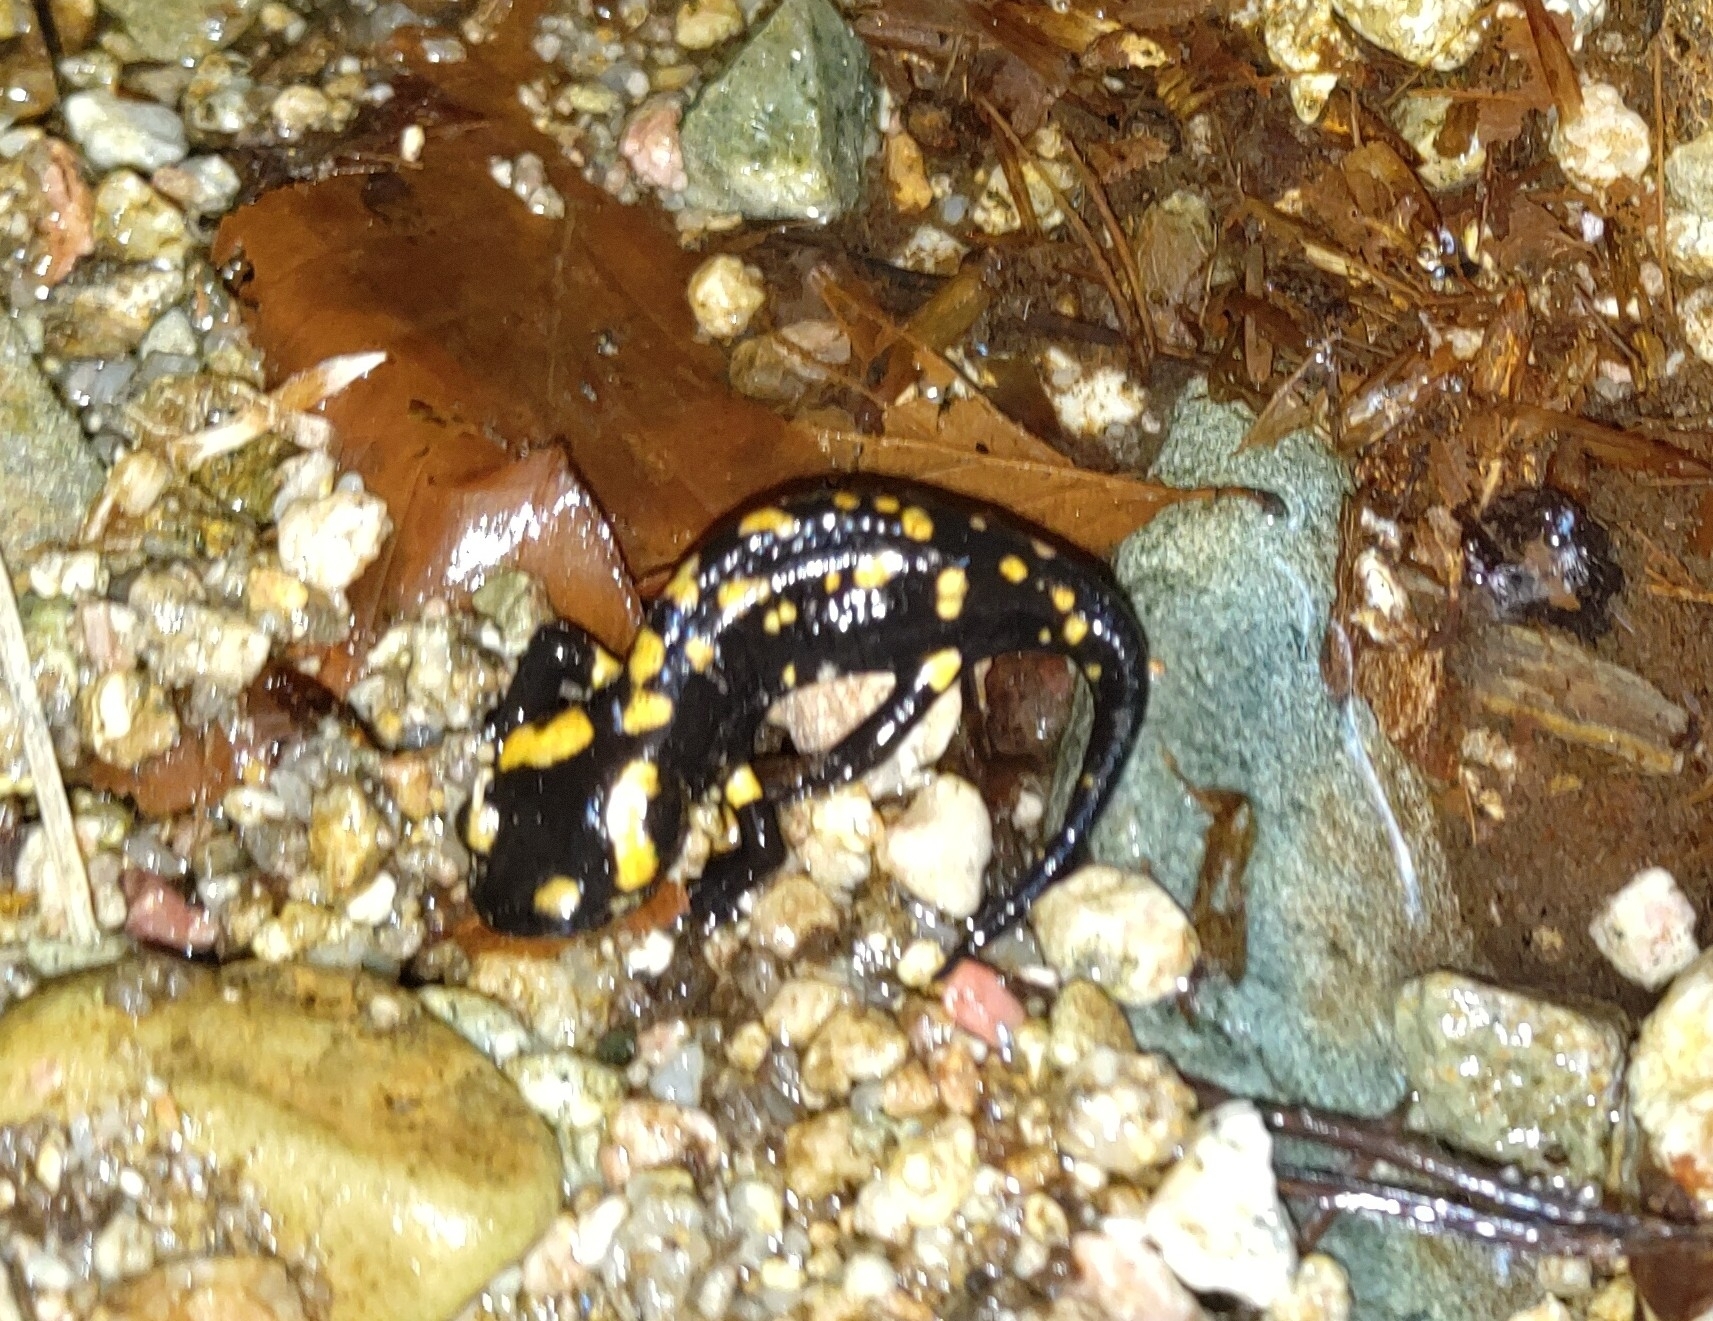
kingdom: Animalia
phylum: Chordata
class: Amphibia
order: Caudata
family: Salamandridae
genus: Salamandra
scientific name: Salamandra corsica
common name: Corsican fire salamander
